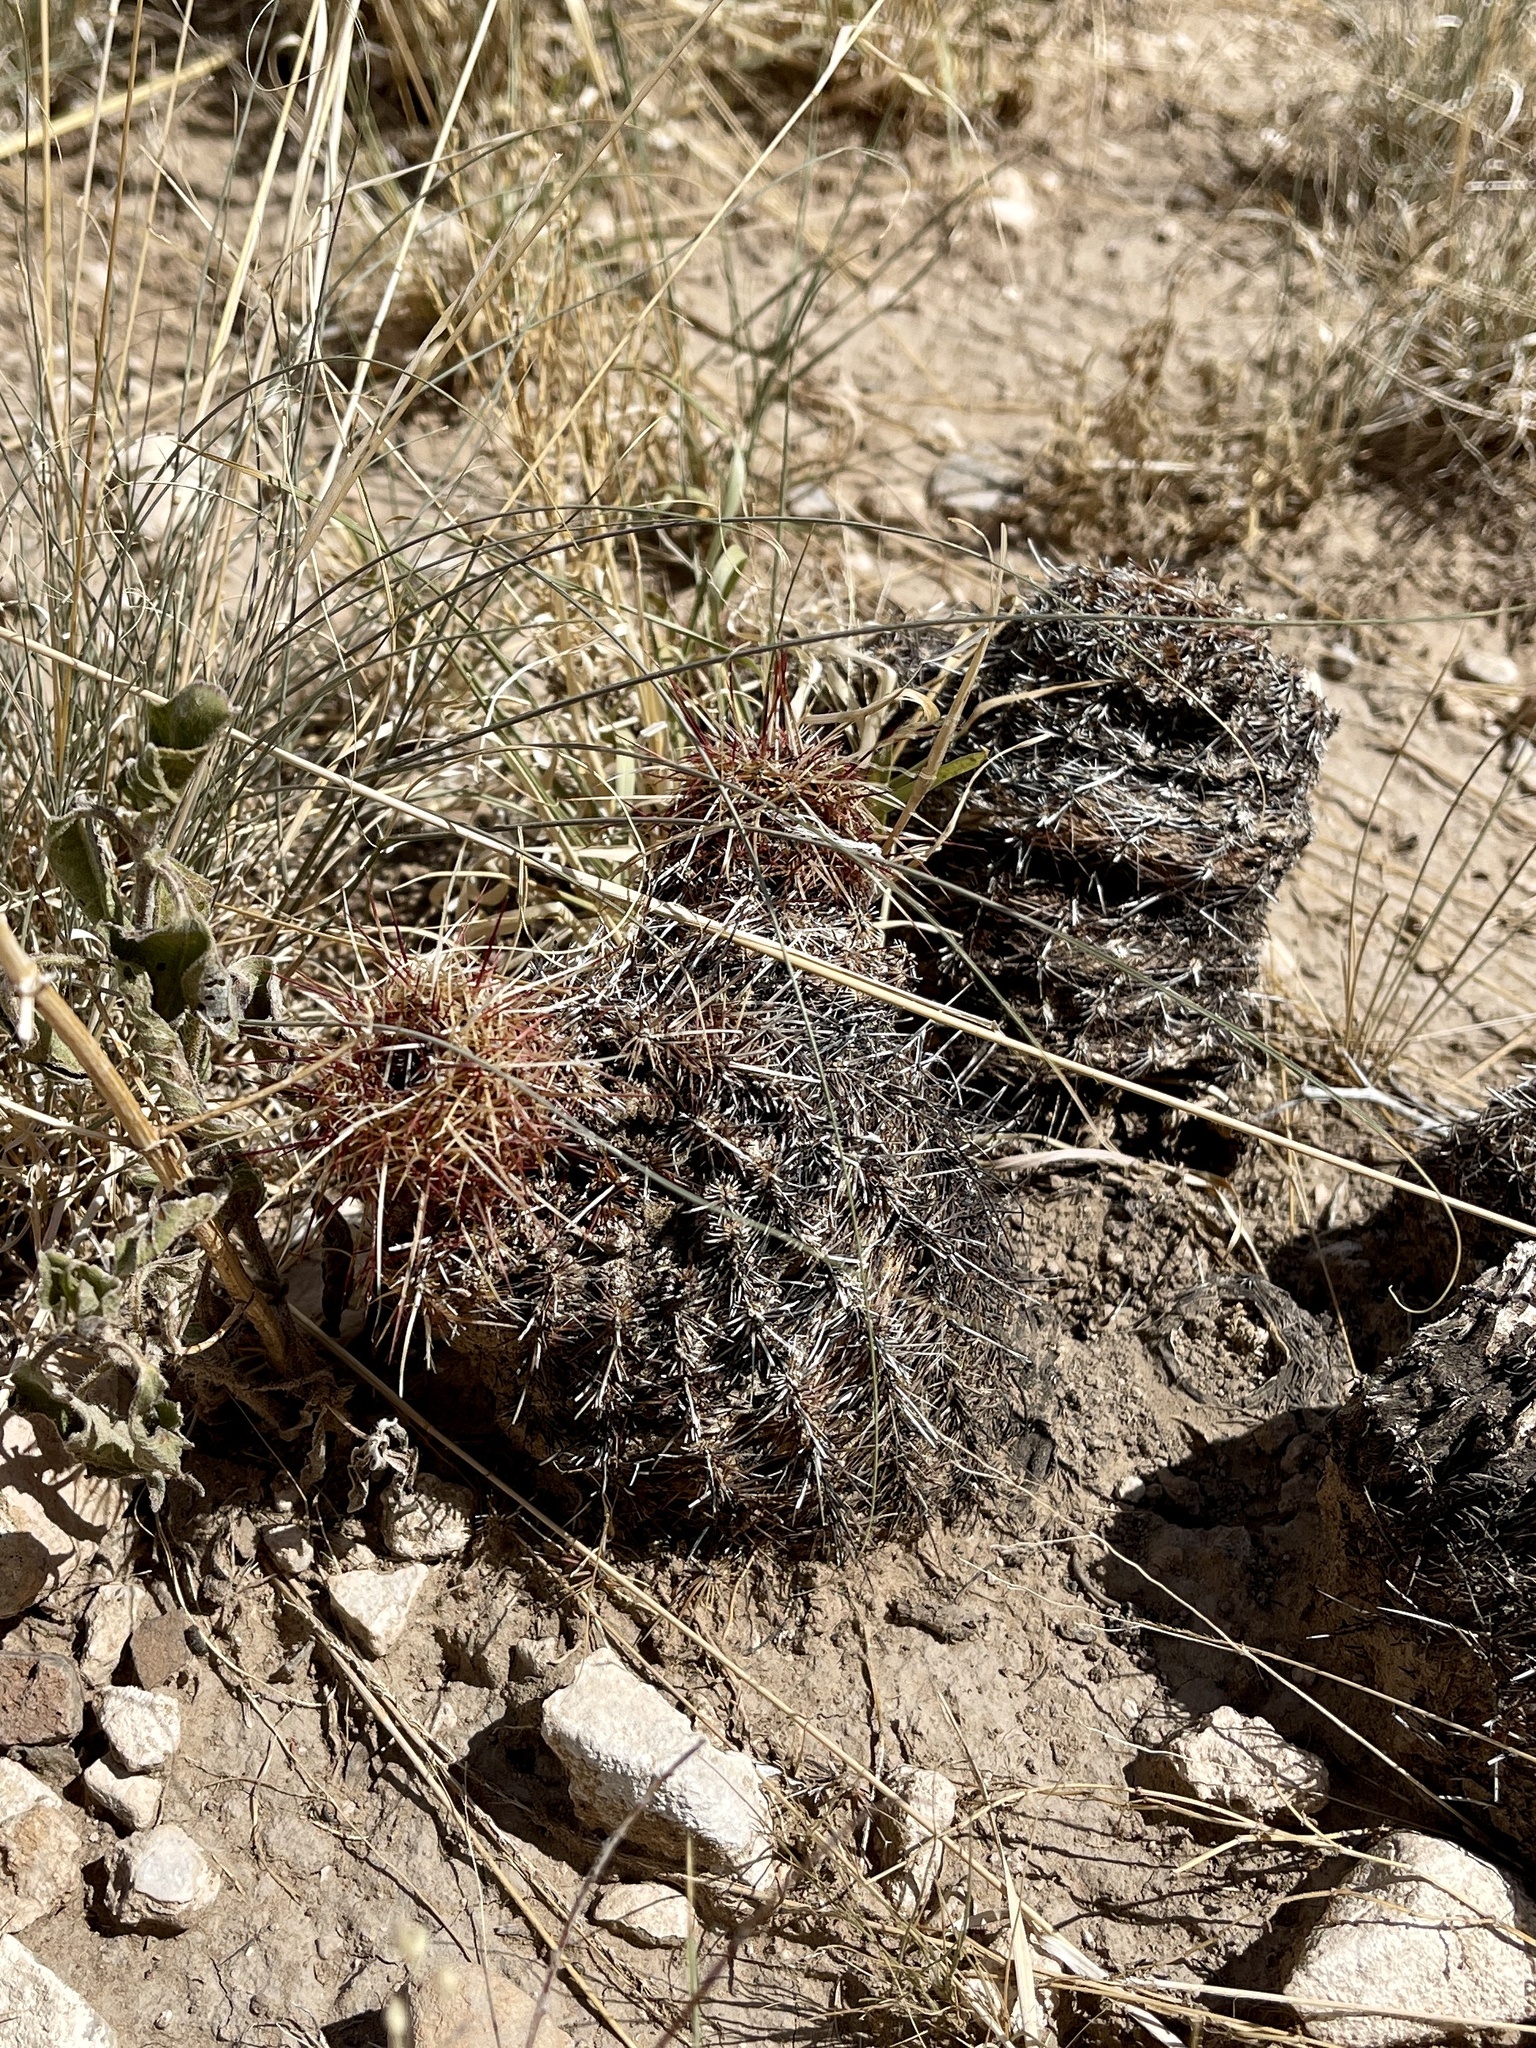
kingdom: Plantae
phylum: Tracheophyta
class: Magnoliopsida
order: Caryophyllales
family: Cactaceae
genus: Echinocereus
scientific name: Echinocereus viridiflorus
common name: Nylon hedgehog cactus
